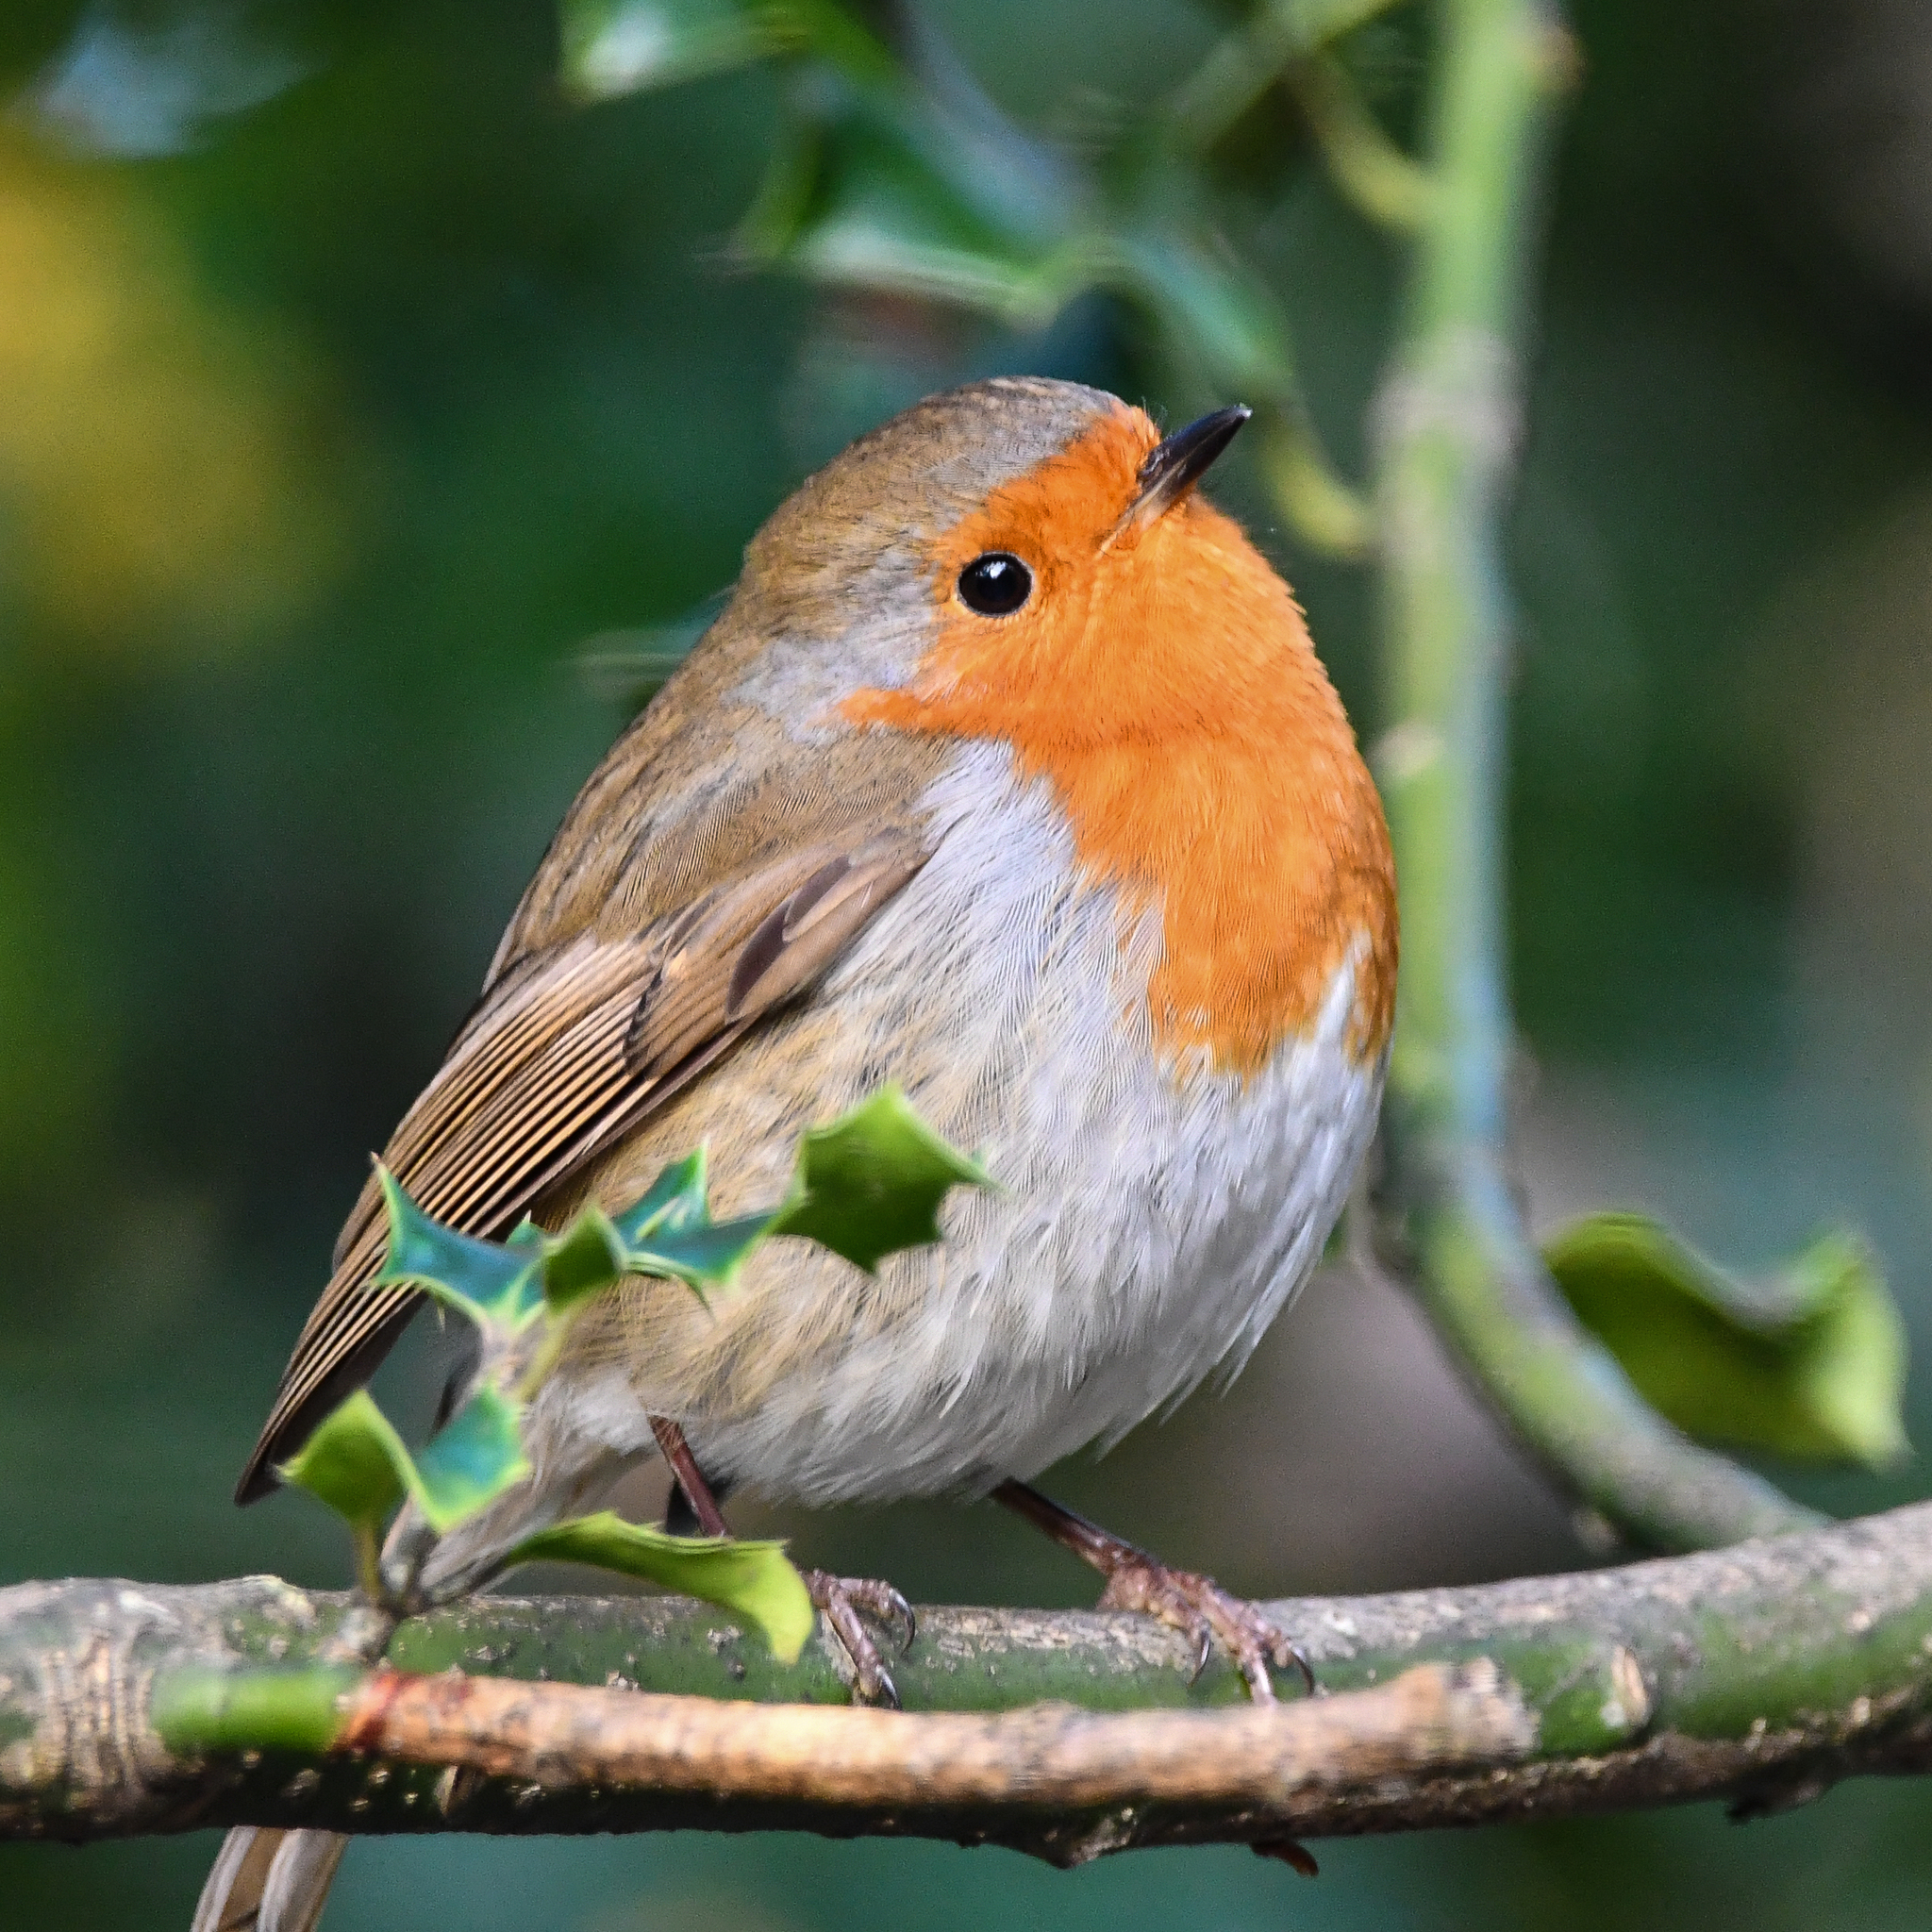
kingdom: Animalia
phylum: Chordata
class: Aves
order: Passeriformes
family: Muscicapidae
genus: Erithacus
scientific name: Erithacus rubecula
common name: European robin
